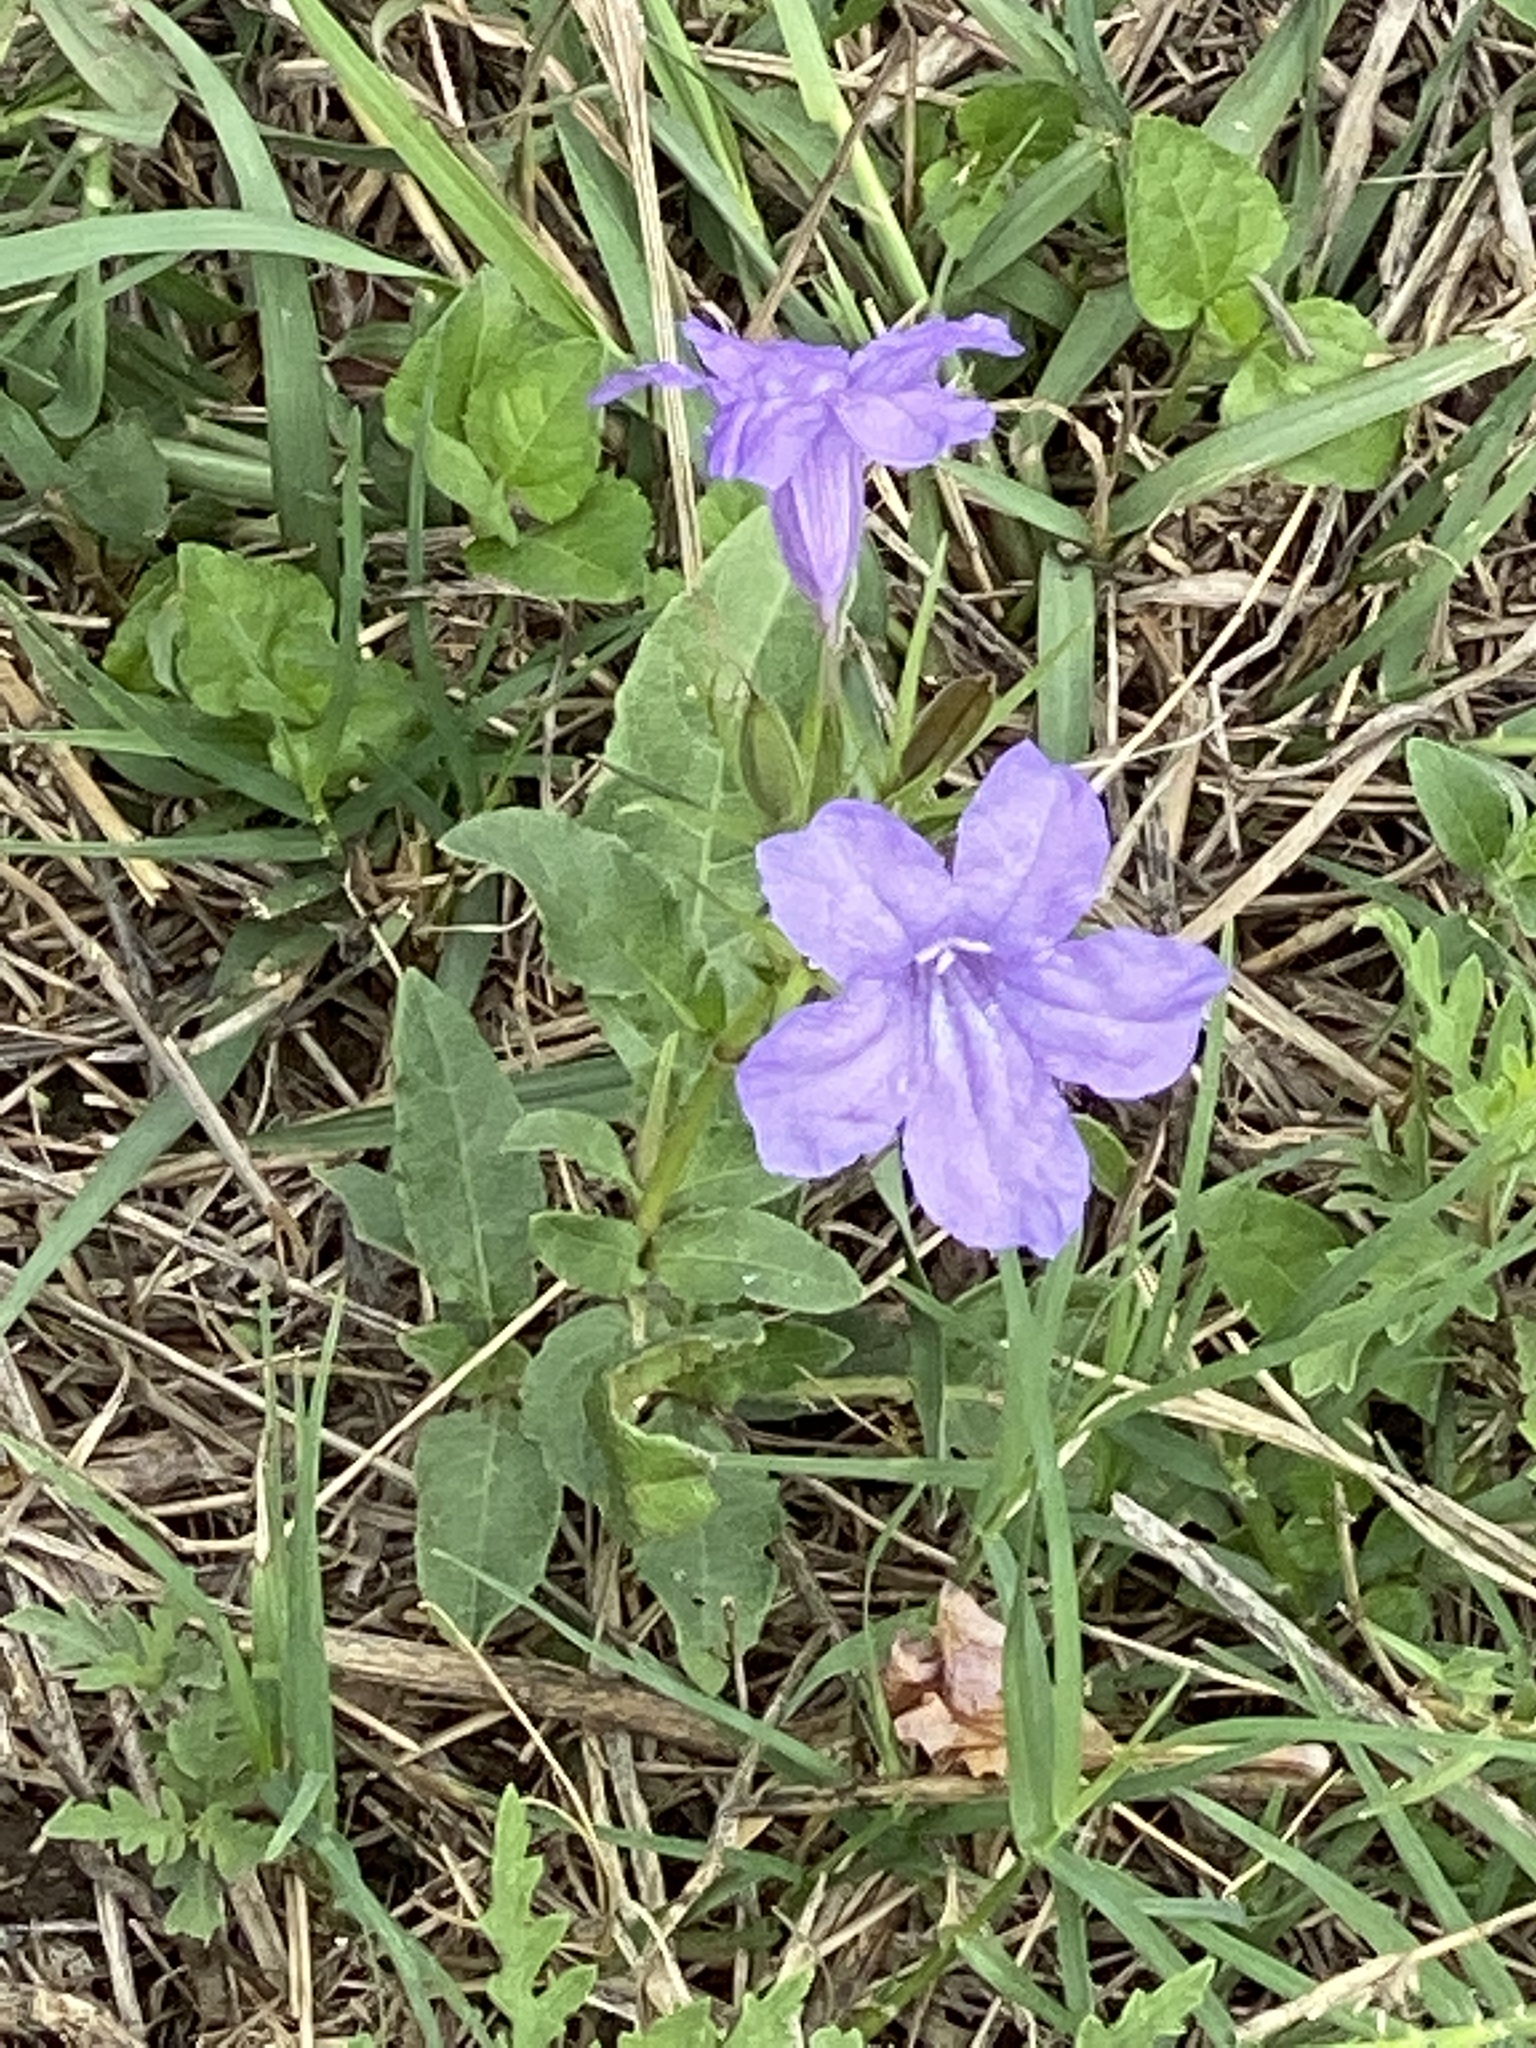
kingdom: Plantae
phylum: Tracheophyta
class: Magnoliopsida
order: Lamiales
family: Acanthaceae
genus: Ruellia
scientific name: Ruellia ciliatiflora
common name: Hairyflower wild petunia
